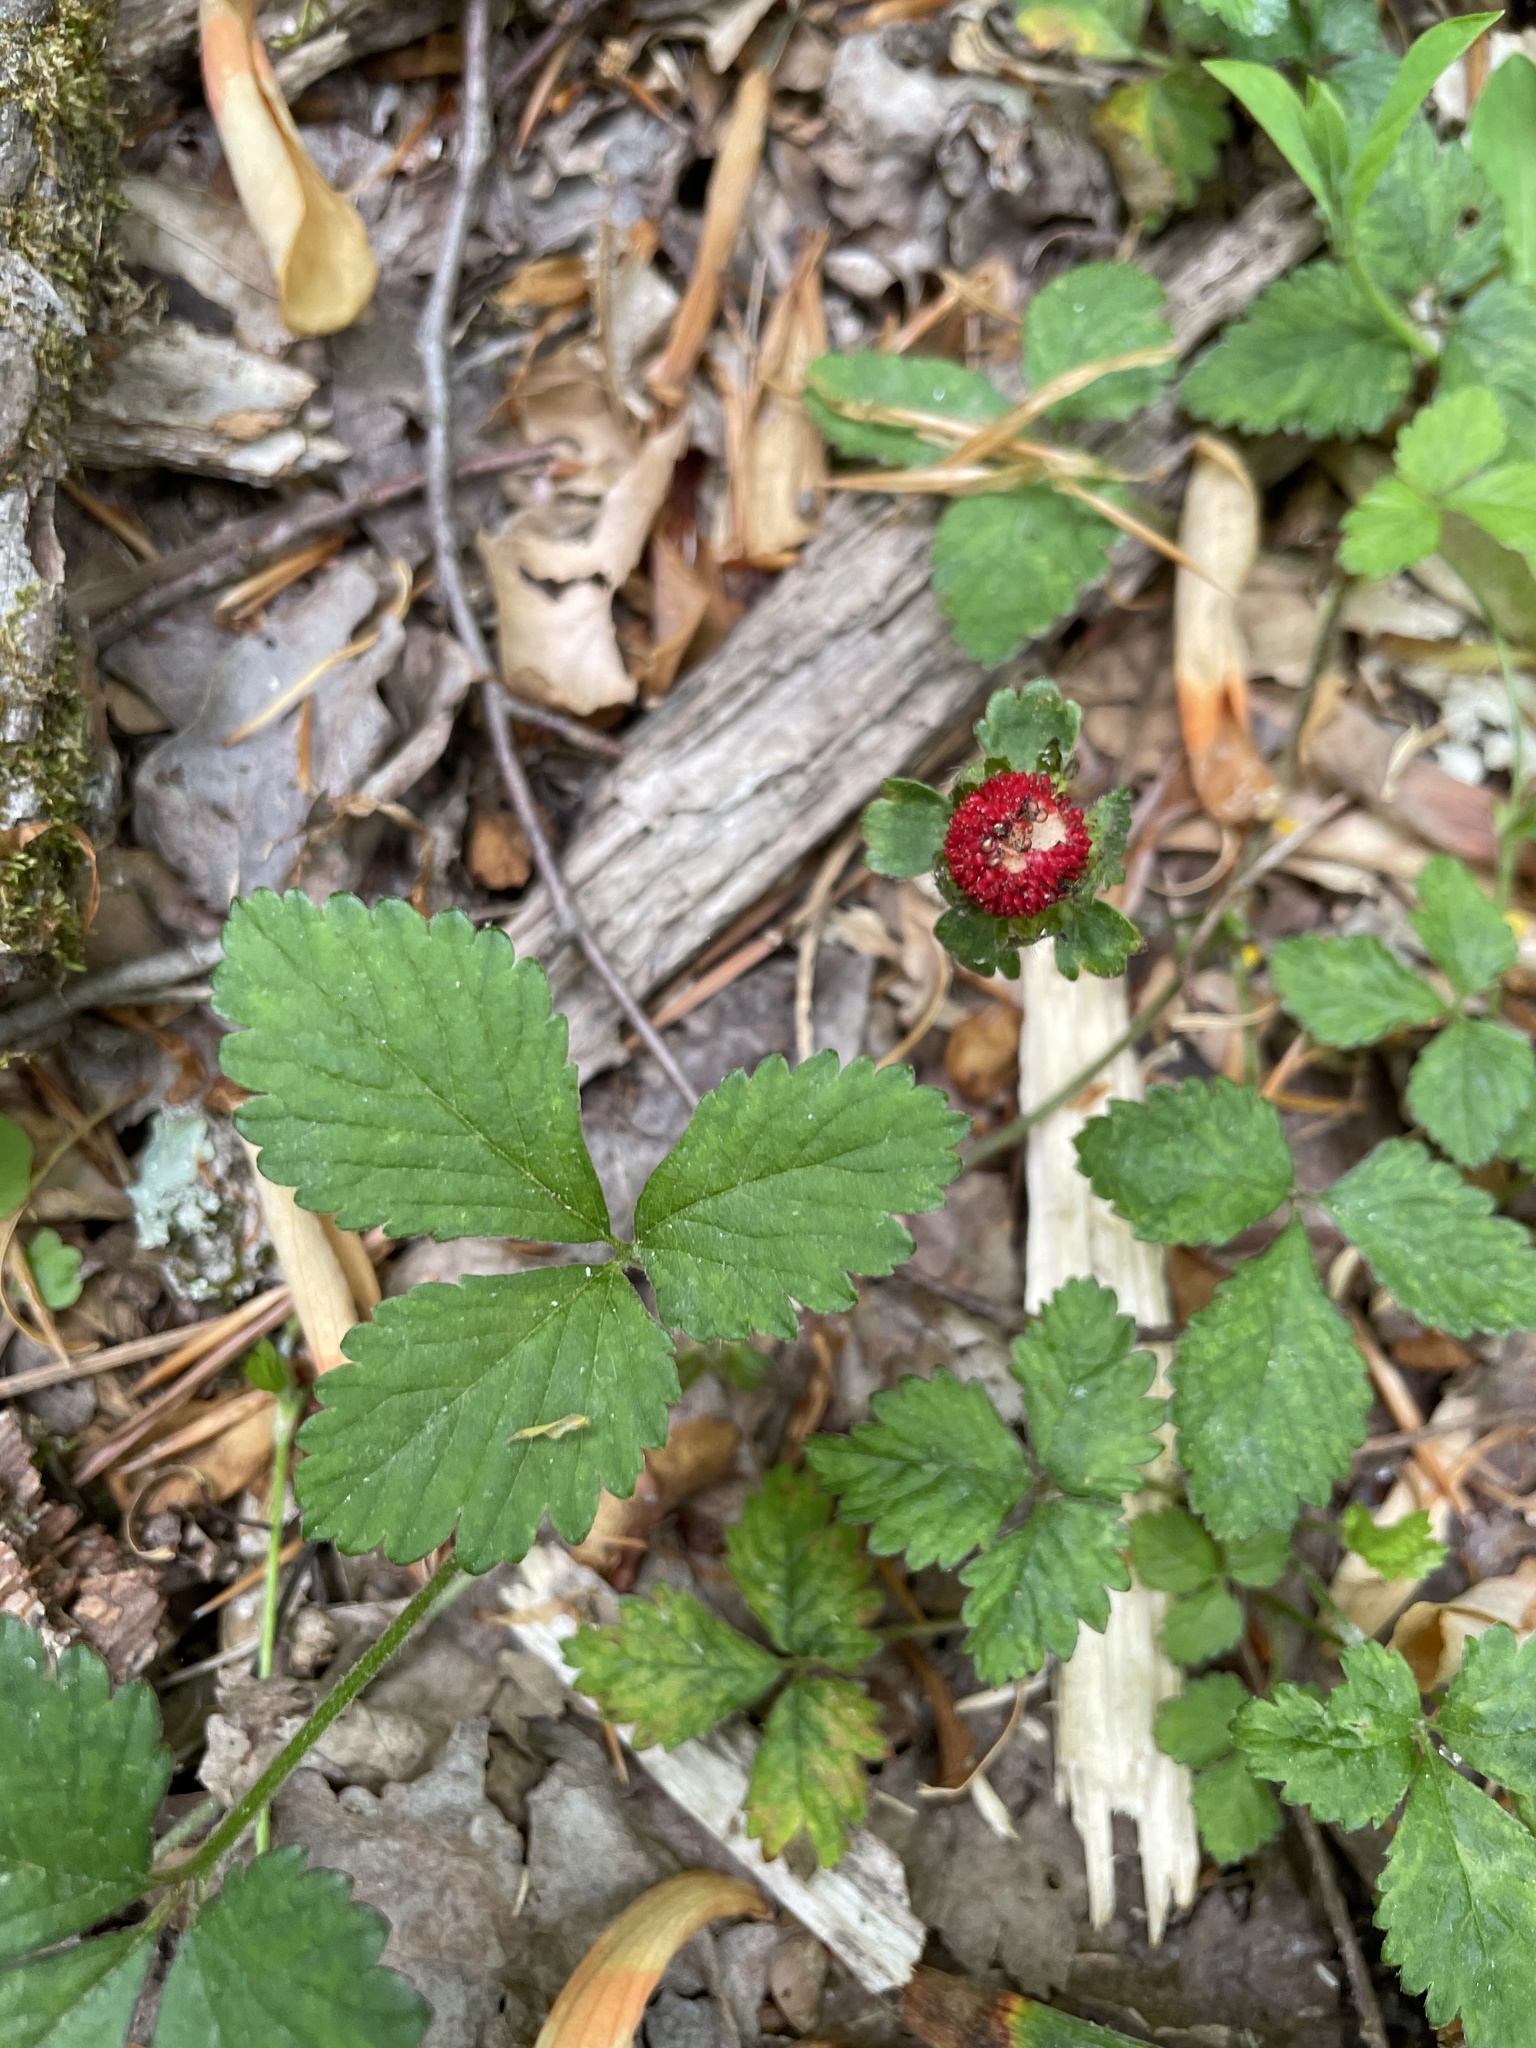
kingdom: Plantae
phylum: Tracheophyta
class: Magnoliopsida
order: Rosales
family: Rosaceae
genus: Potentilla
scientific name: Potentilla indica
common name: Yellow-flowered strawberry
